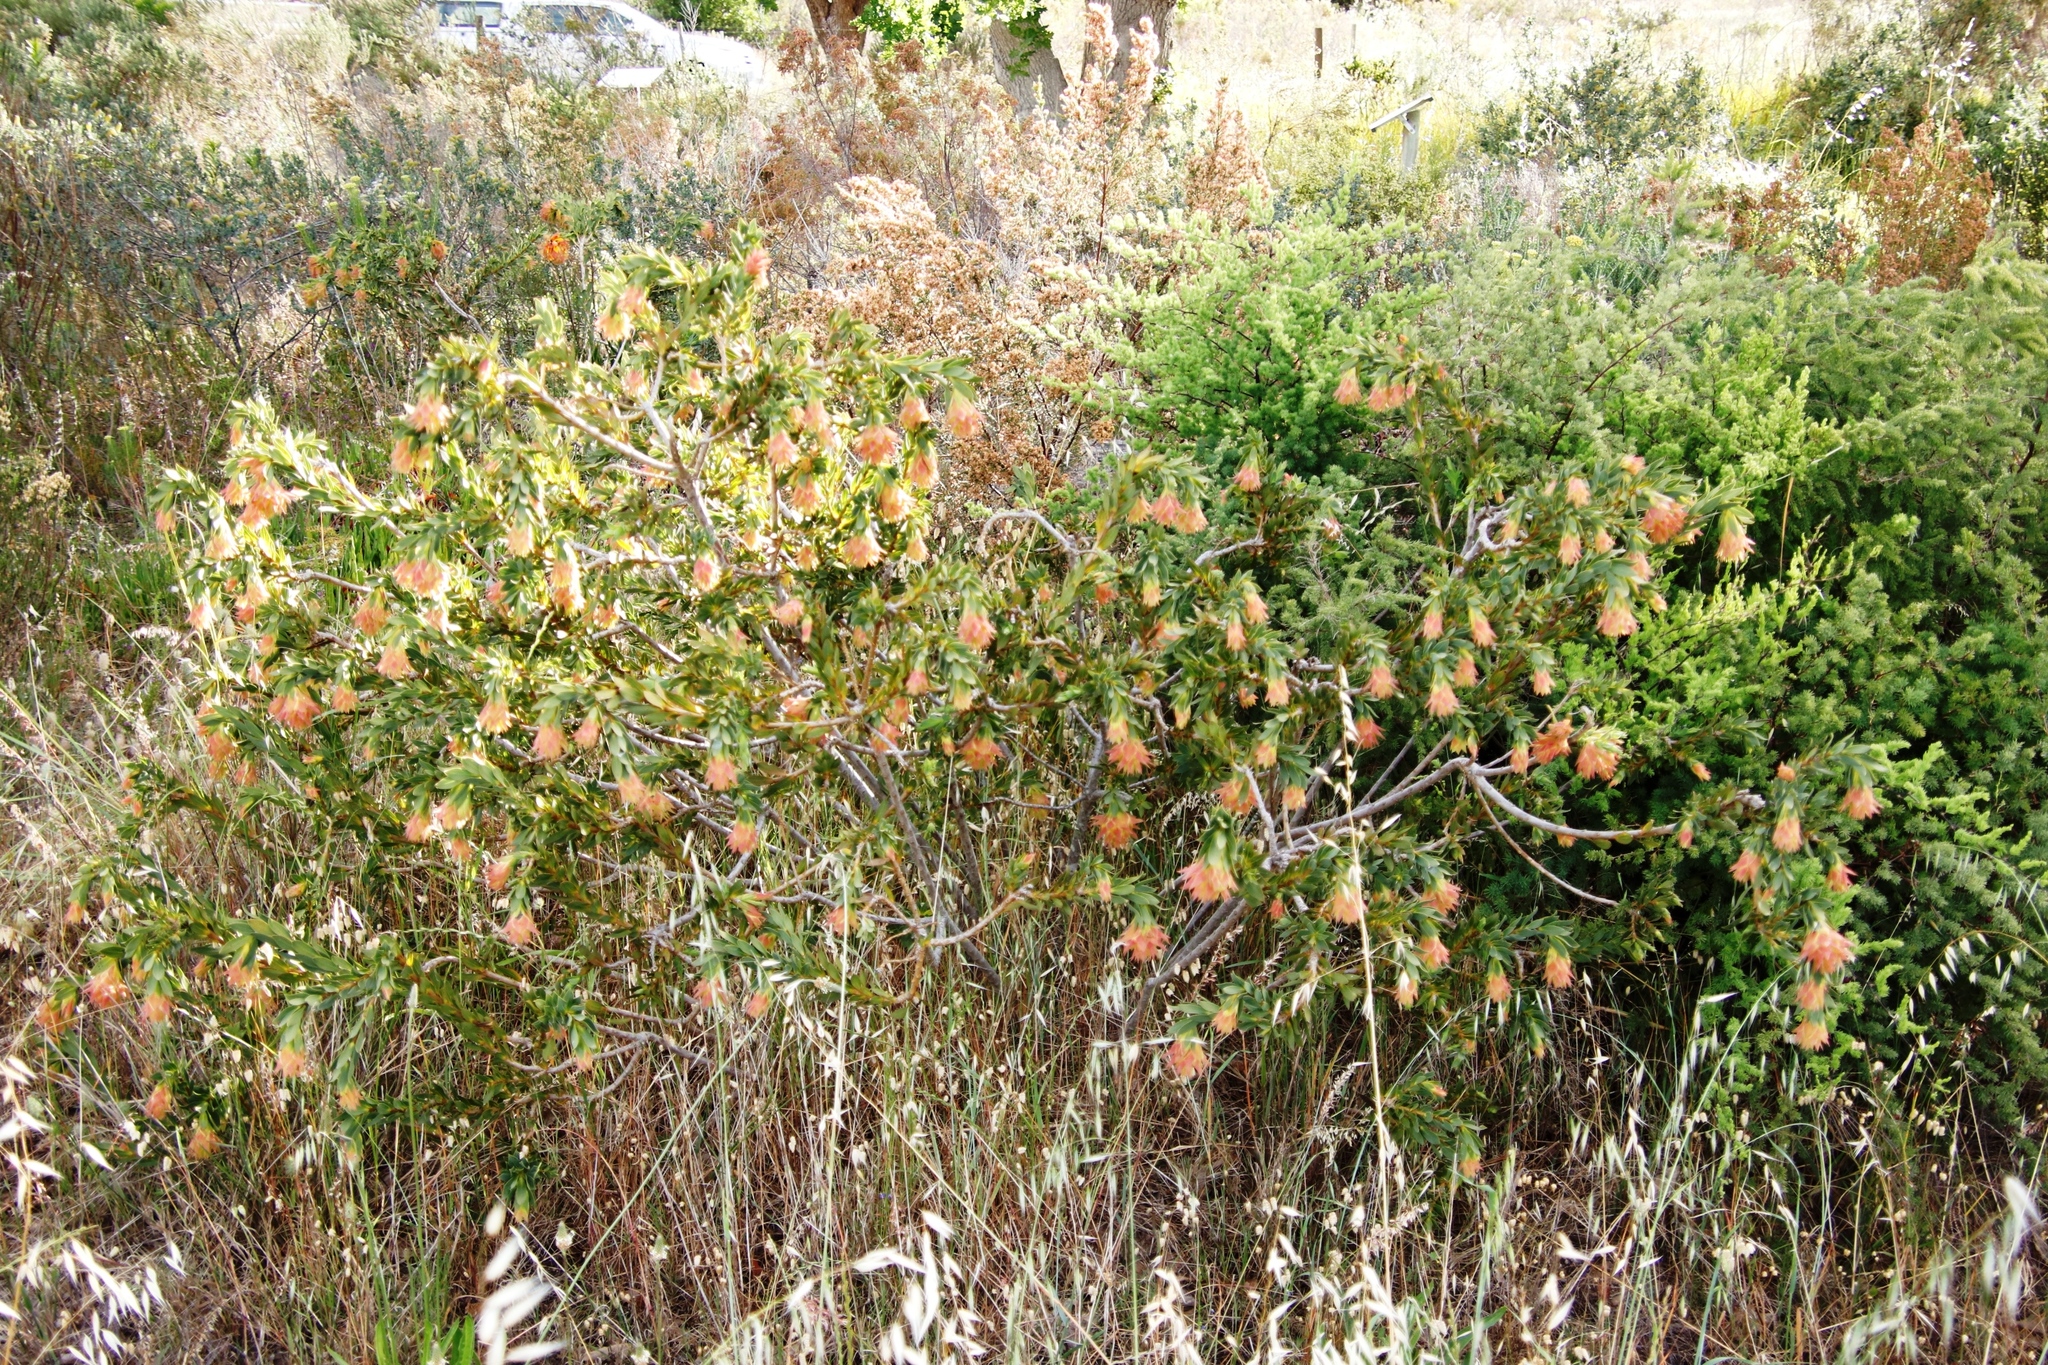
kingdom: Plantae
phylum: Tracheophyta
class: Magnoliopsida
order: Fabales
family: Fabaceae
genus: Liparia
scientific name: Liparia splendens
